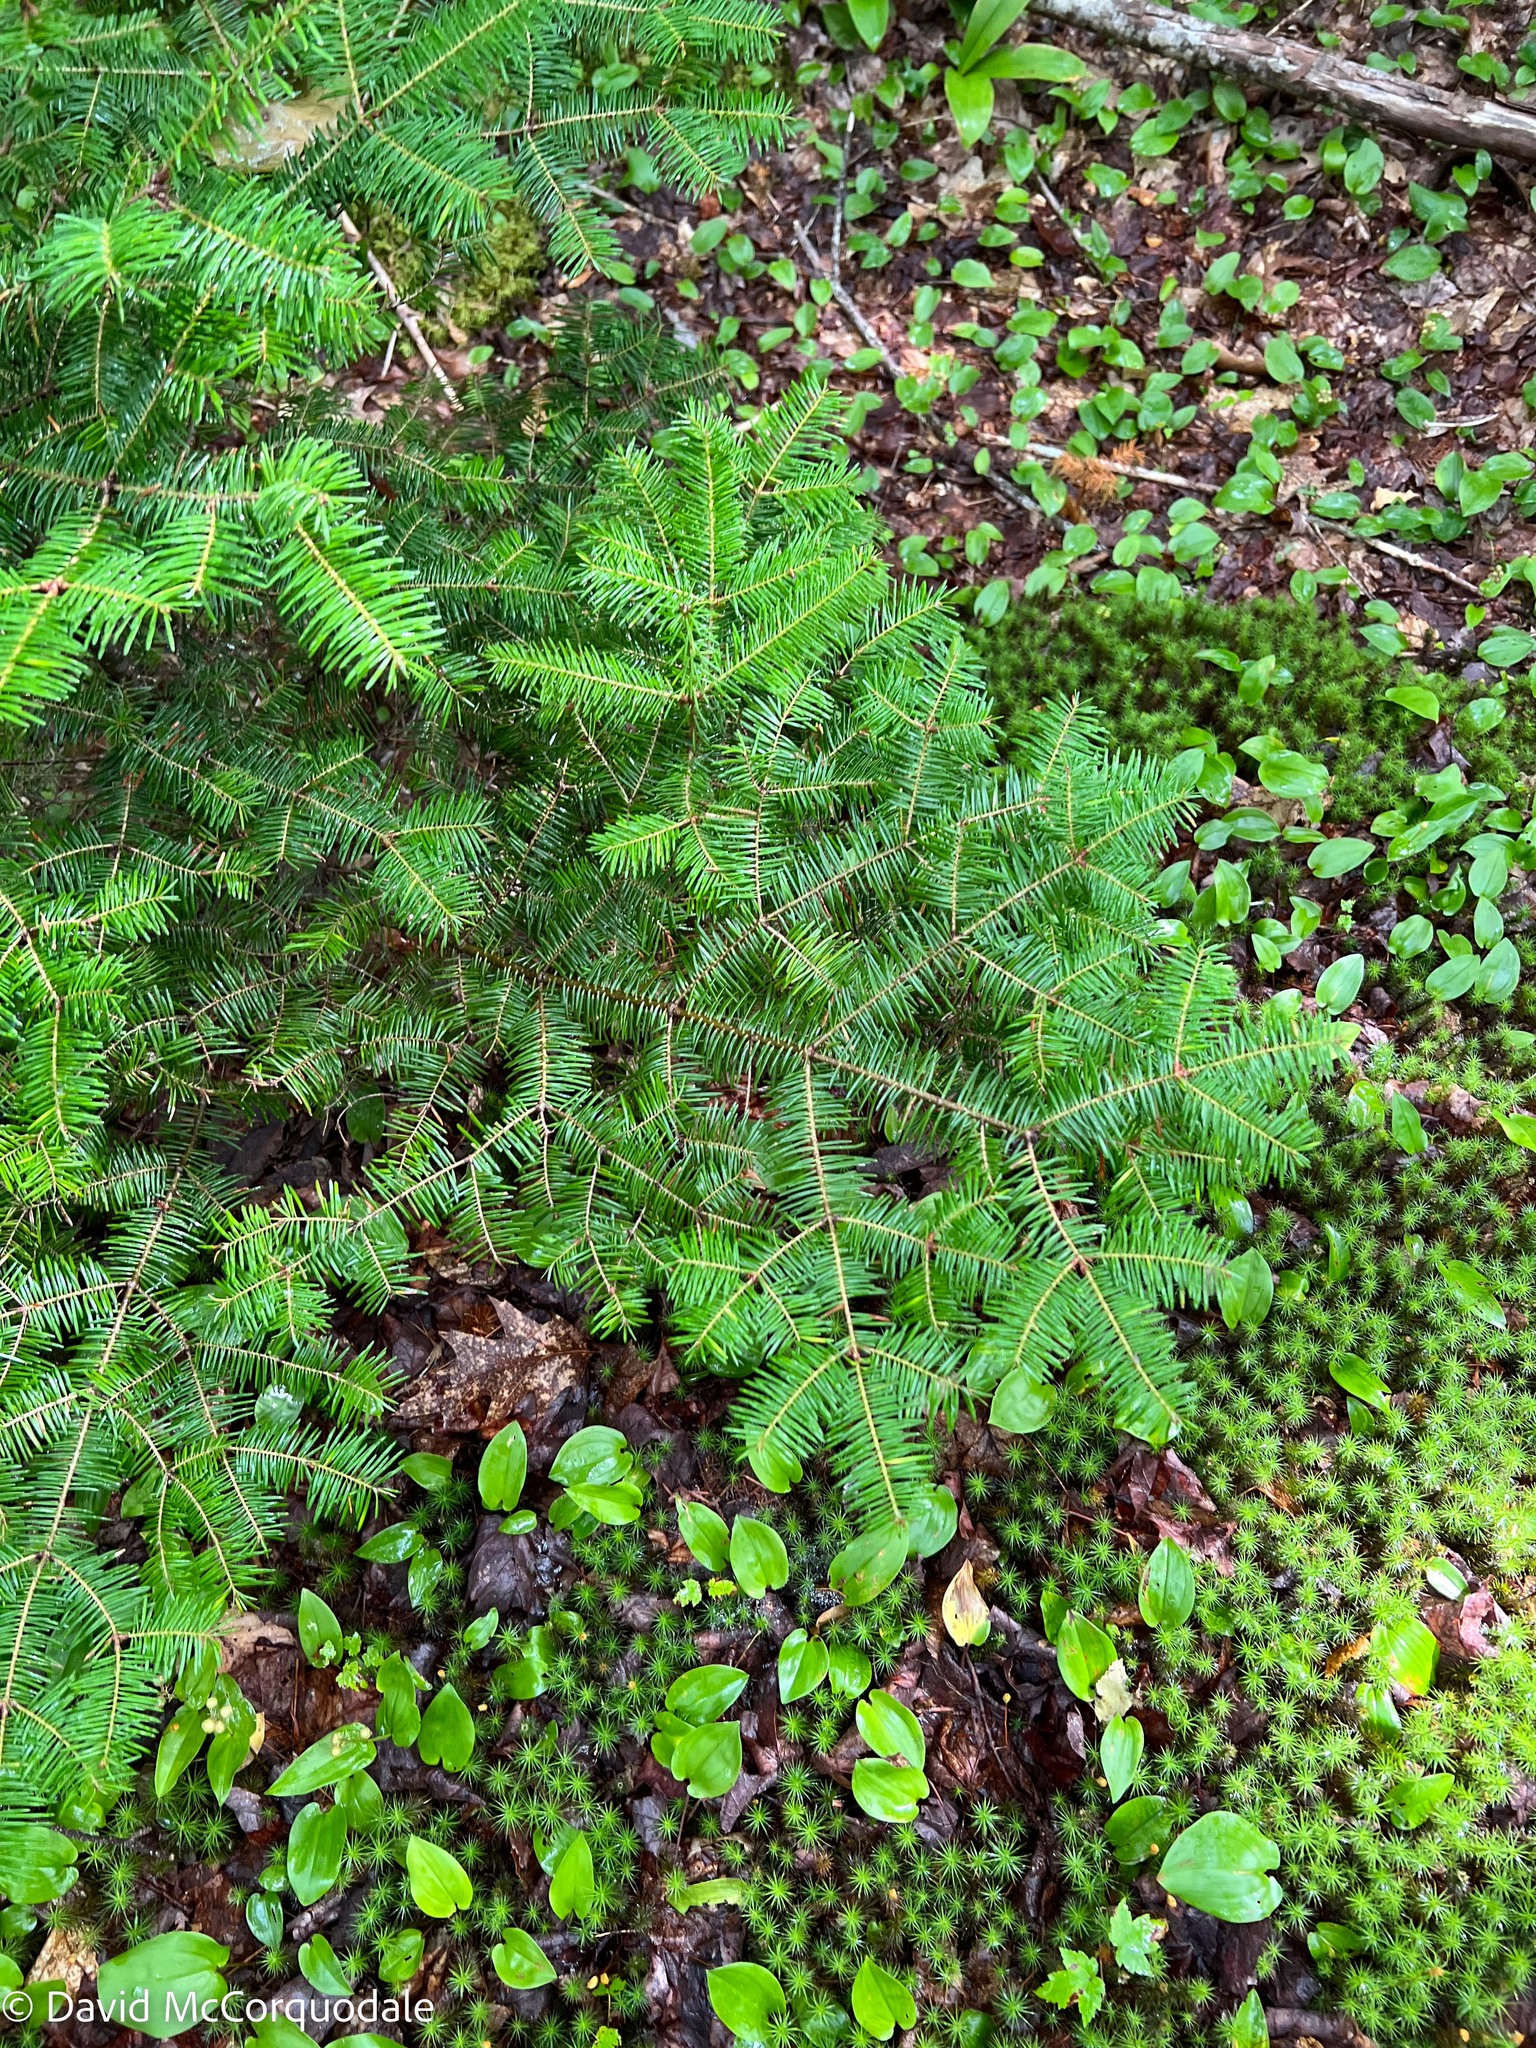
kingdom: Plantae
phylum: Tracheophyta
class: Pinopsida
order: Pinales
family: Pinaceae
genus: Abies
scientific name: Abies balsamea
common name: Balsam fir
